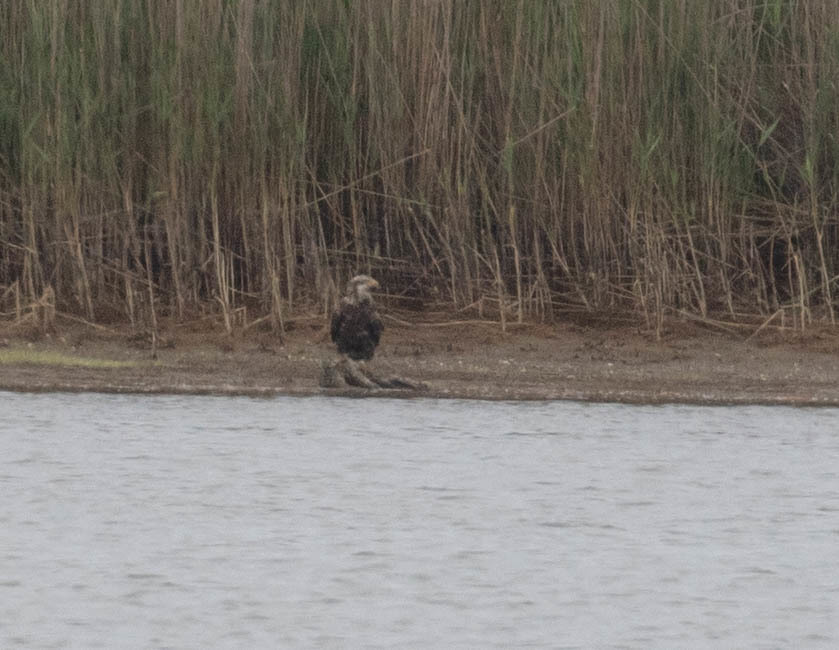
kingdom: Animalia
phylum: Chordata
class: Aves
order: Accipitriformes
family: Accipitridae
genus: Haliaeetus
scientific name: Haliaeetus leucocephalus
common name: Bald eagle
